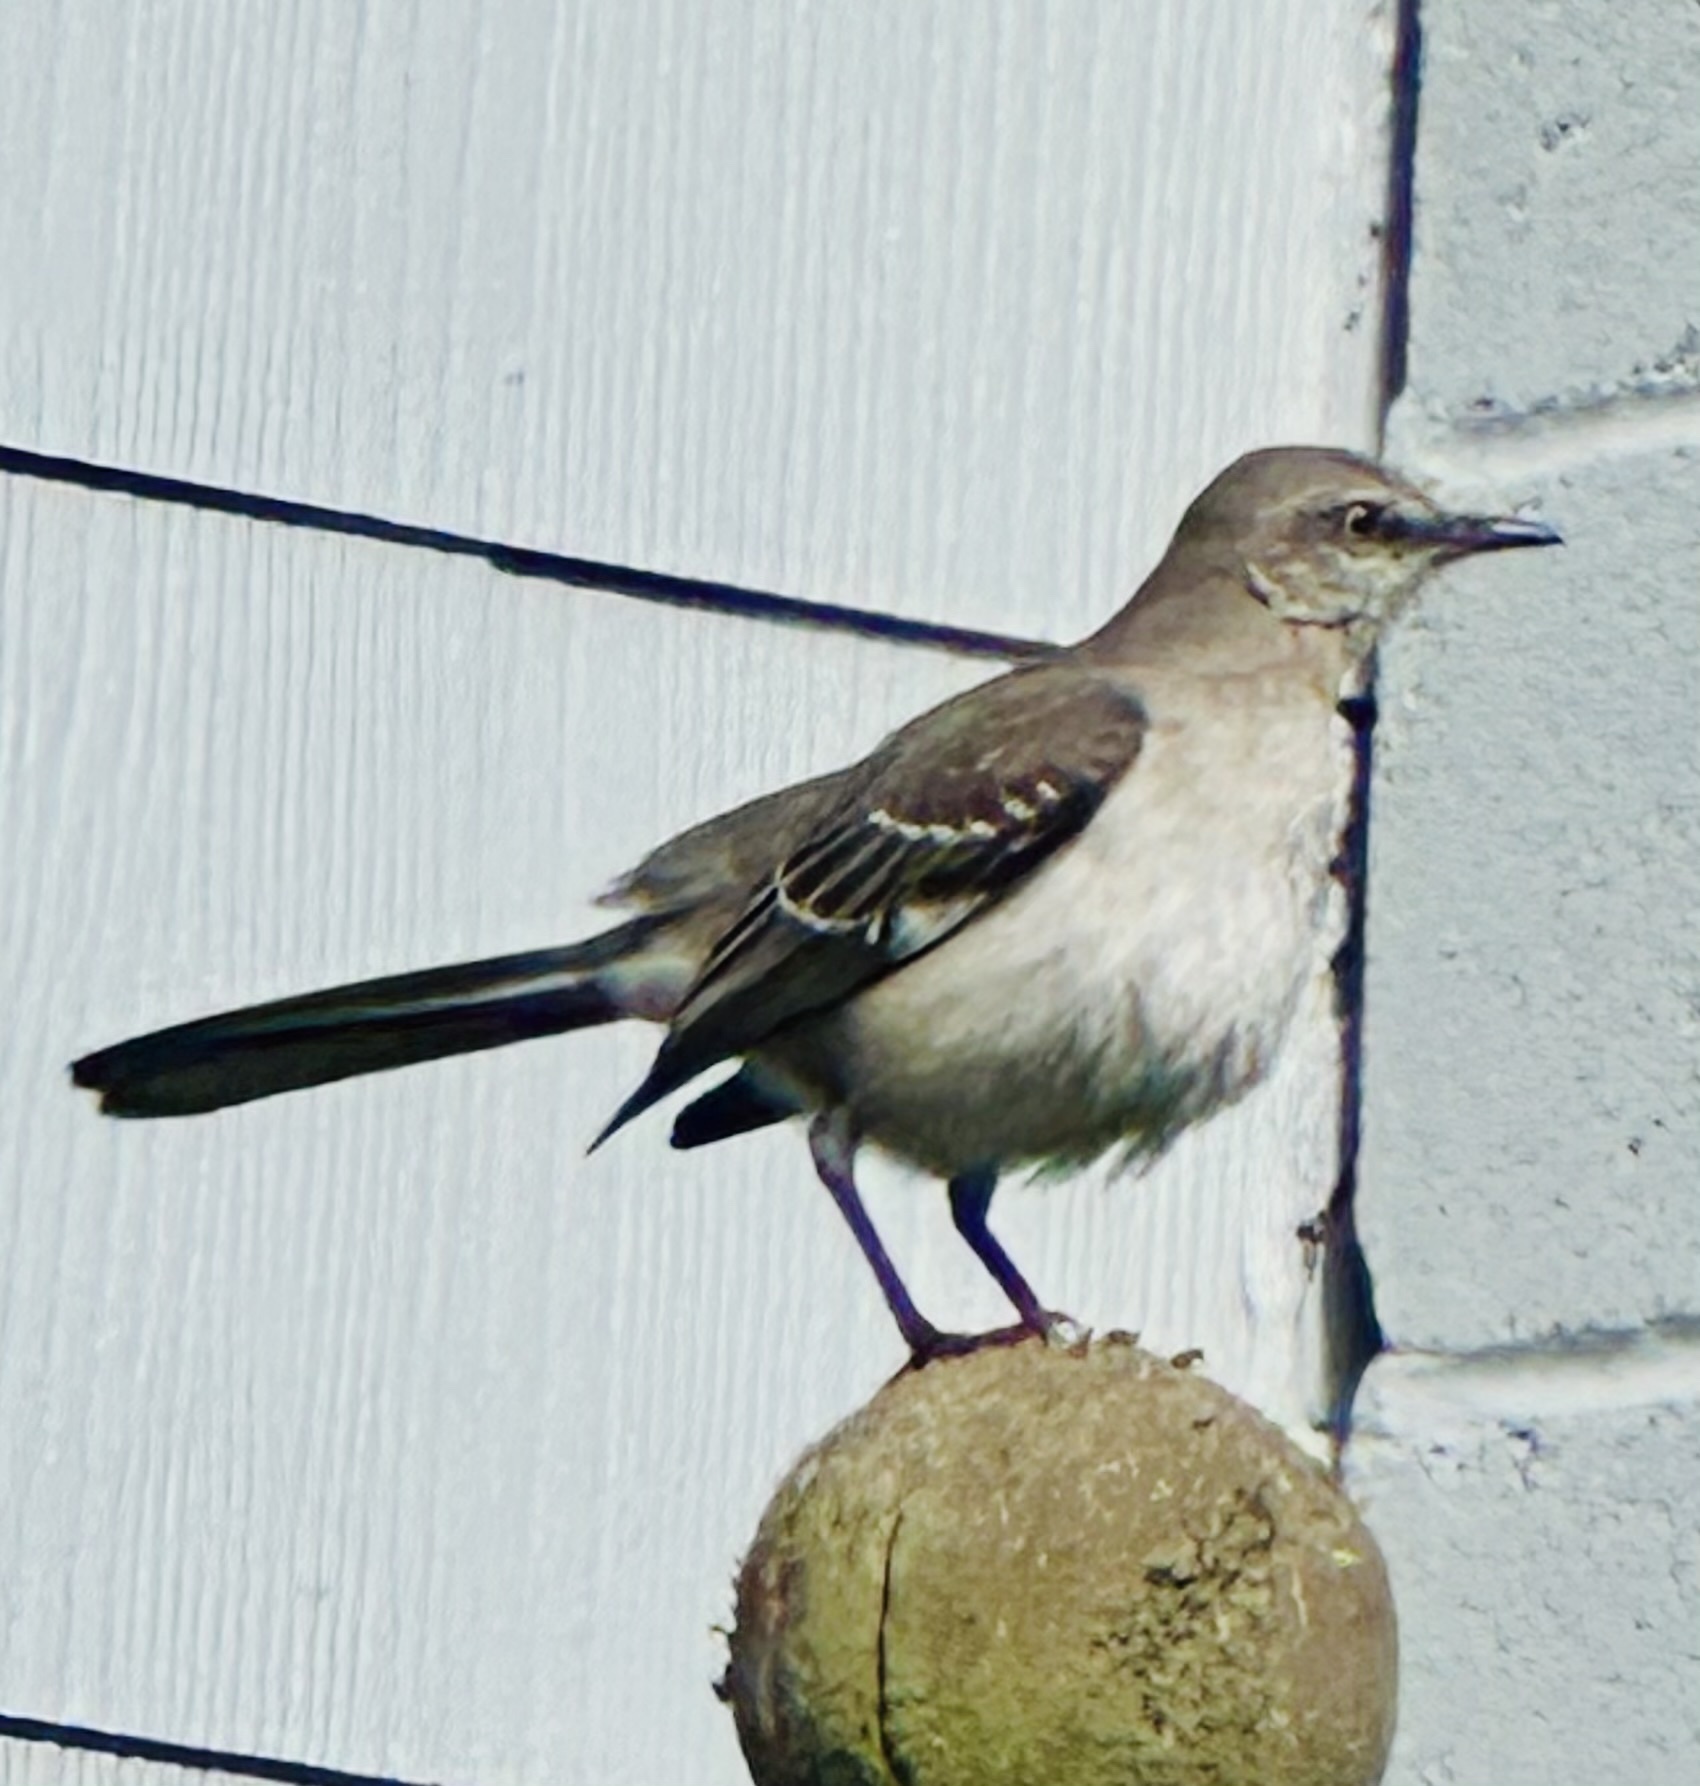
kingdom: Animalia
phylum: Chordata
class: Aves
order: Passeriformes
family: Mimidae
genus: Mimus
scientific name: Mimus polyglottos
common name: Northern mockingbird
